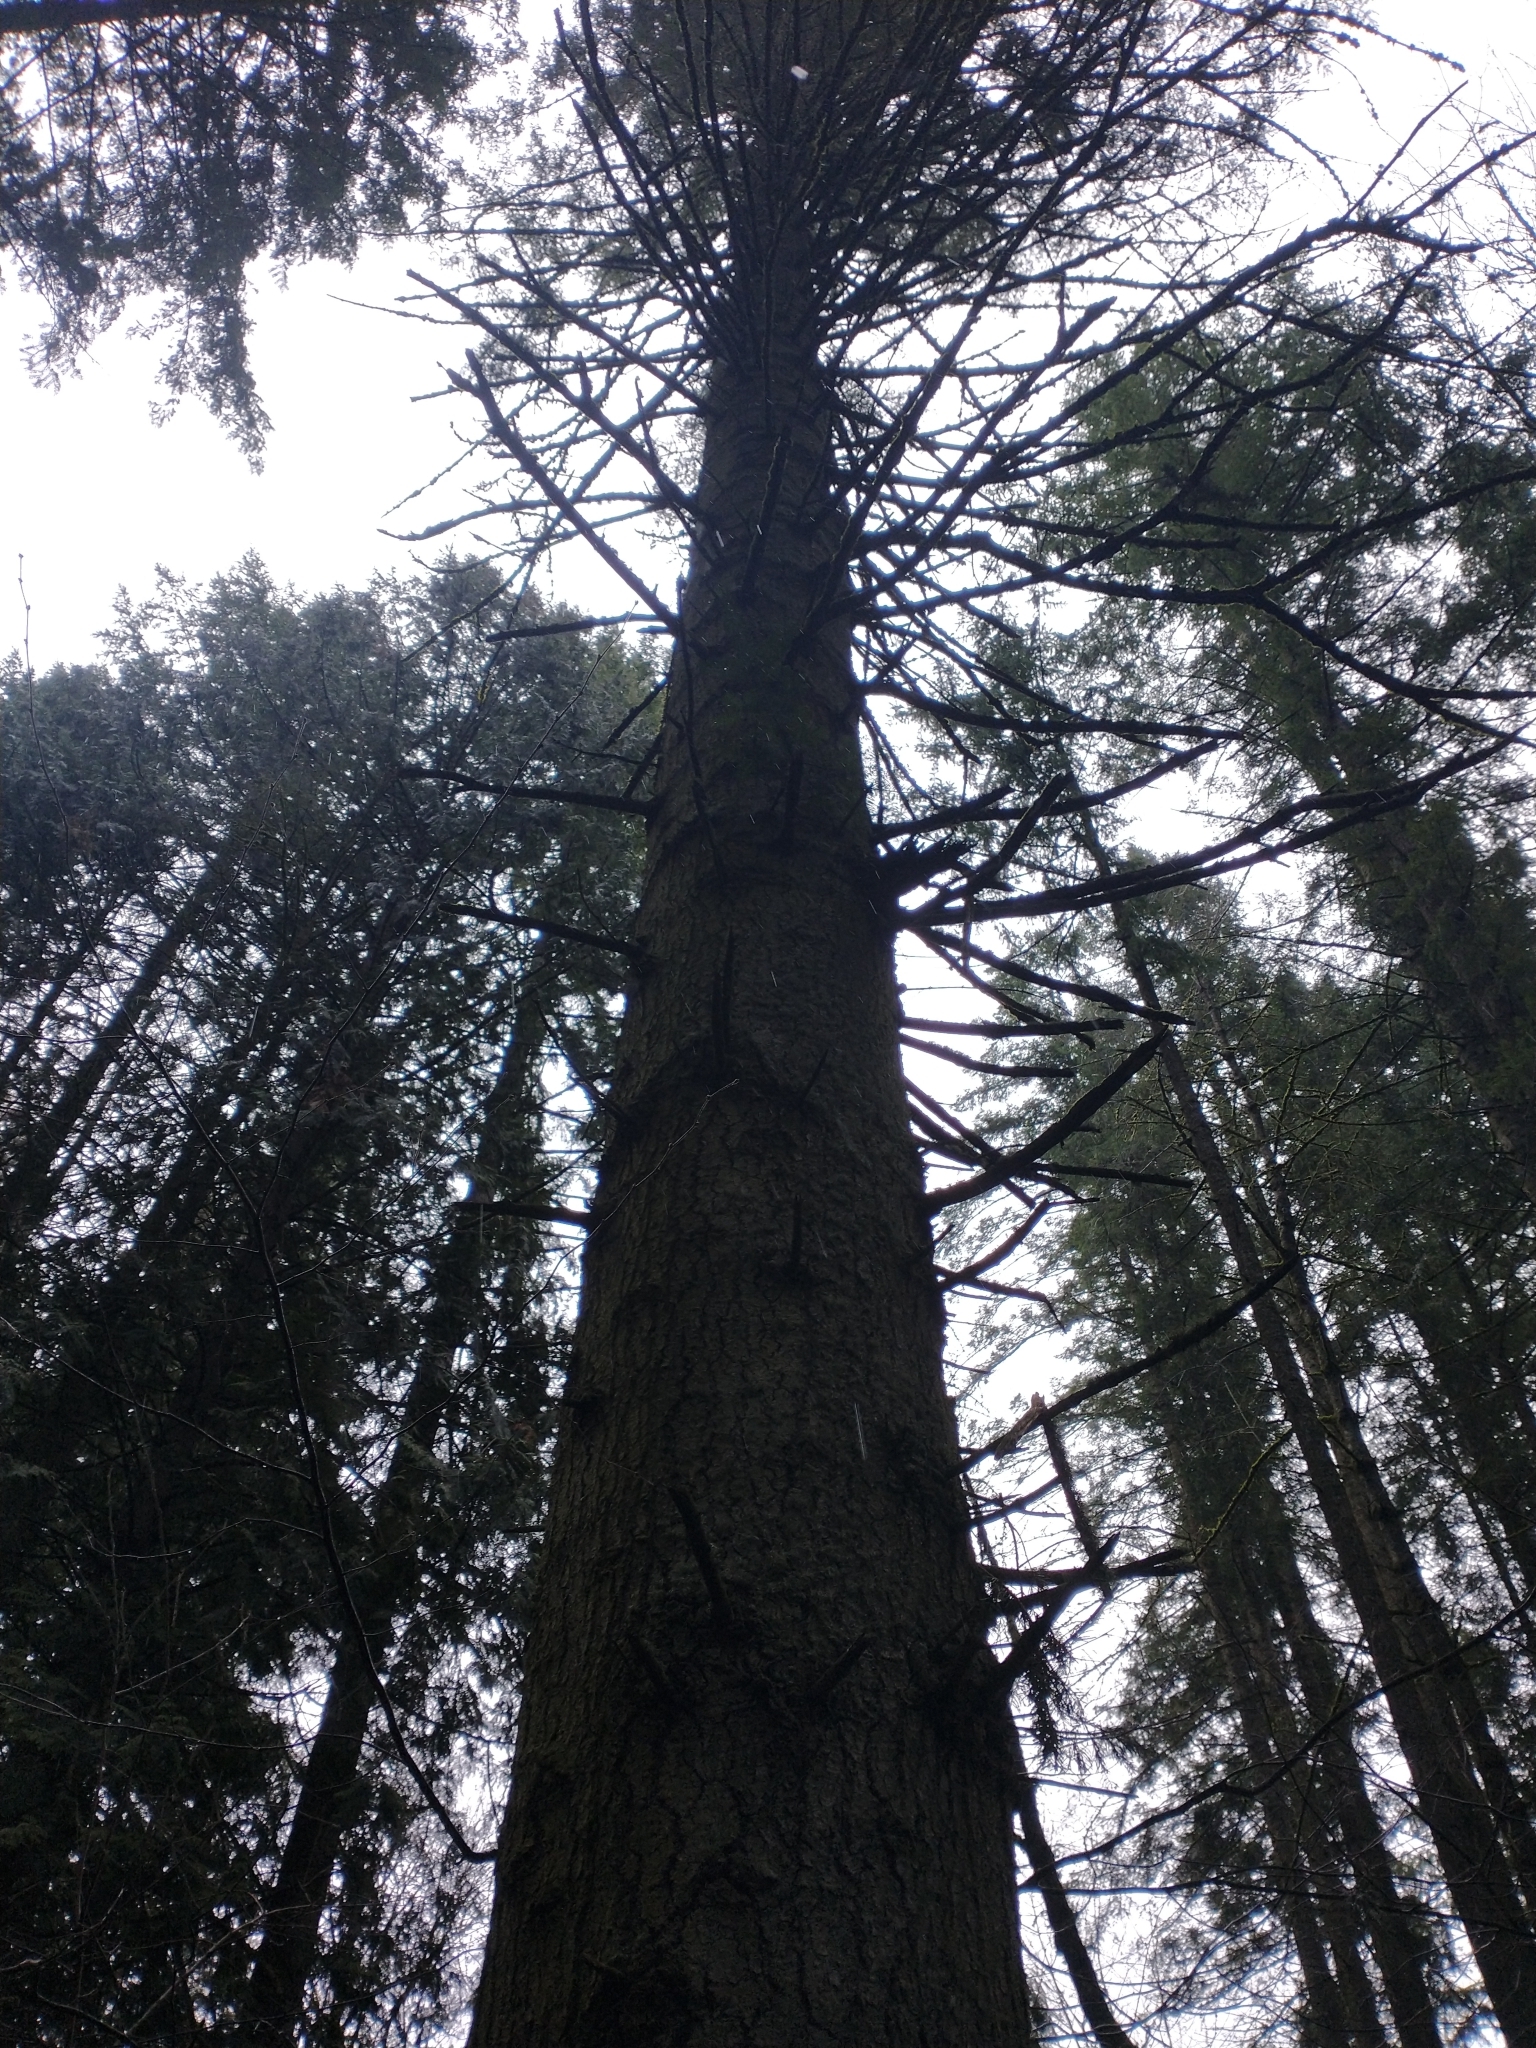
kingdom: Plantae
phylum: Tracheophyta
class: Pinopsida
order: Pinales
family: Pinaceae
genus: Abies
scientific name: Abies grandis
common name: Giant fir
